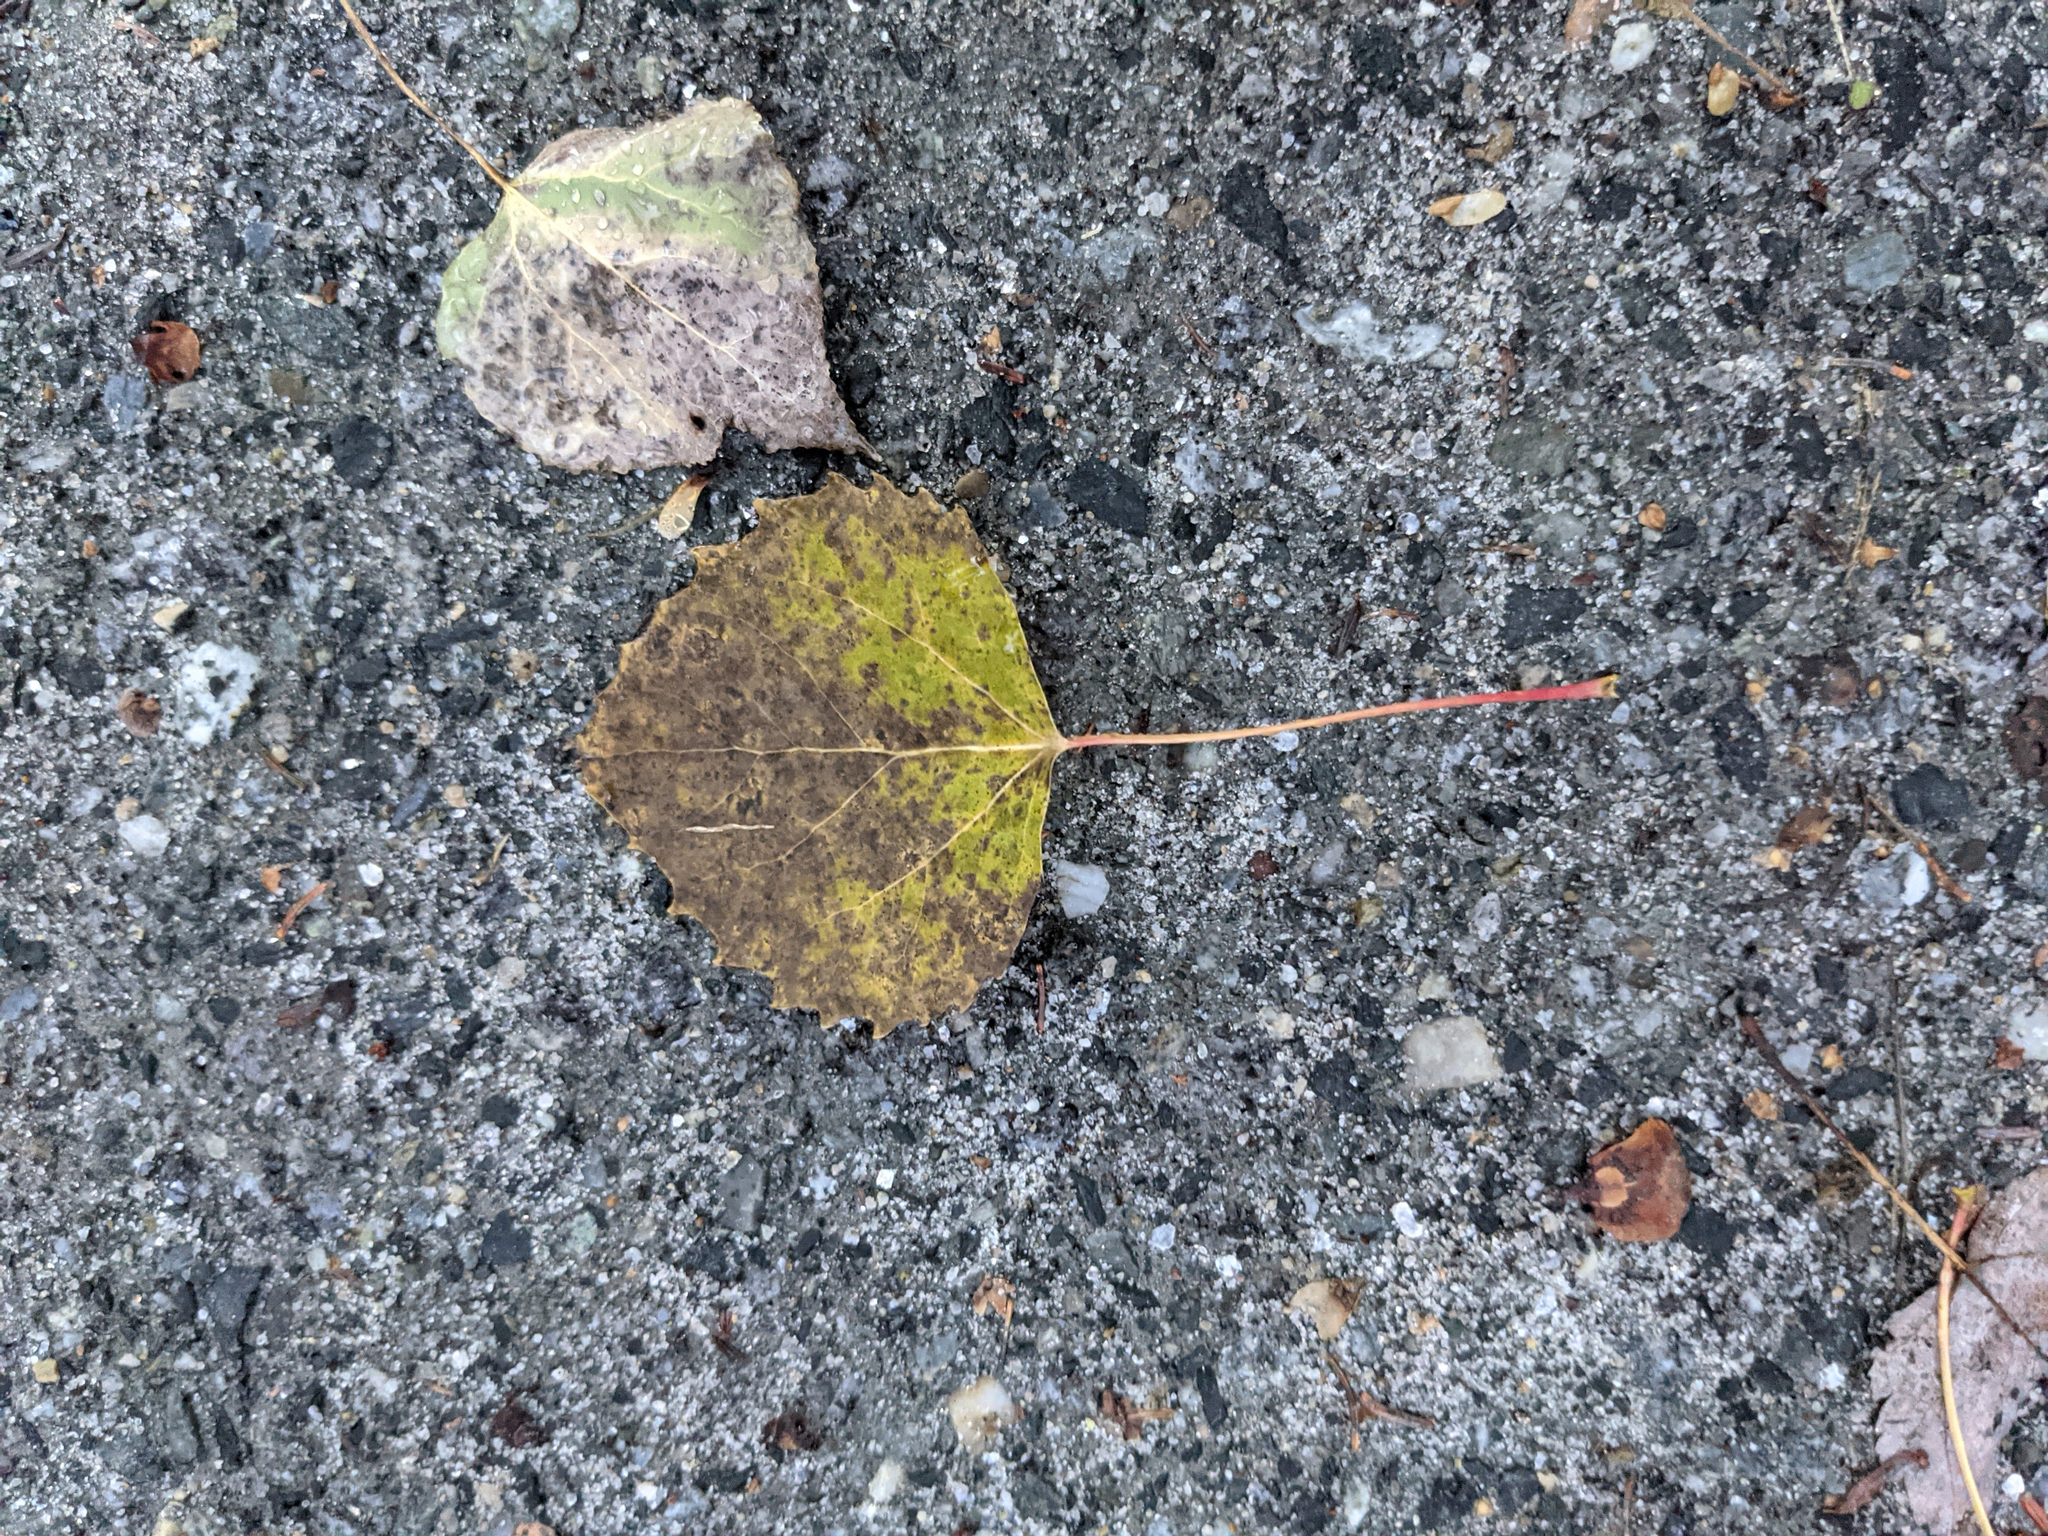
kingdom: Plantae
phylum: Tracheophyta
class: Magnoliopsida
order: Malpighiales
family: Salicaceae
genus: Populus
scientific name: Populus grandidentata
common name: Bigtooth aspen
